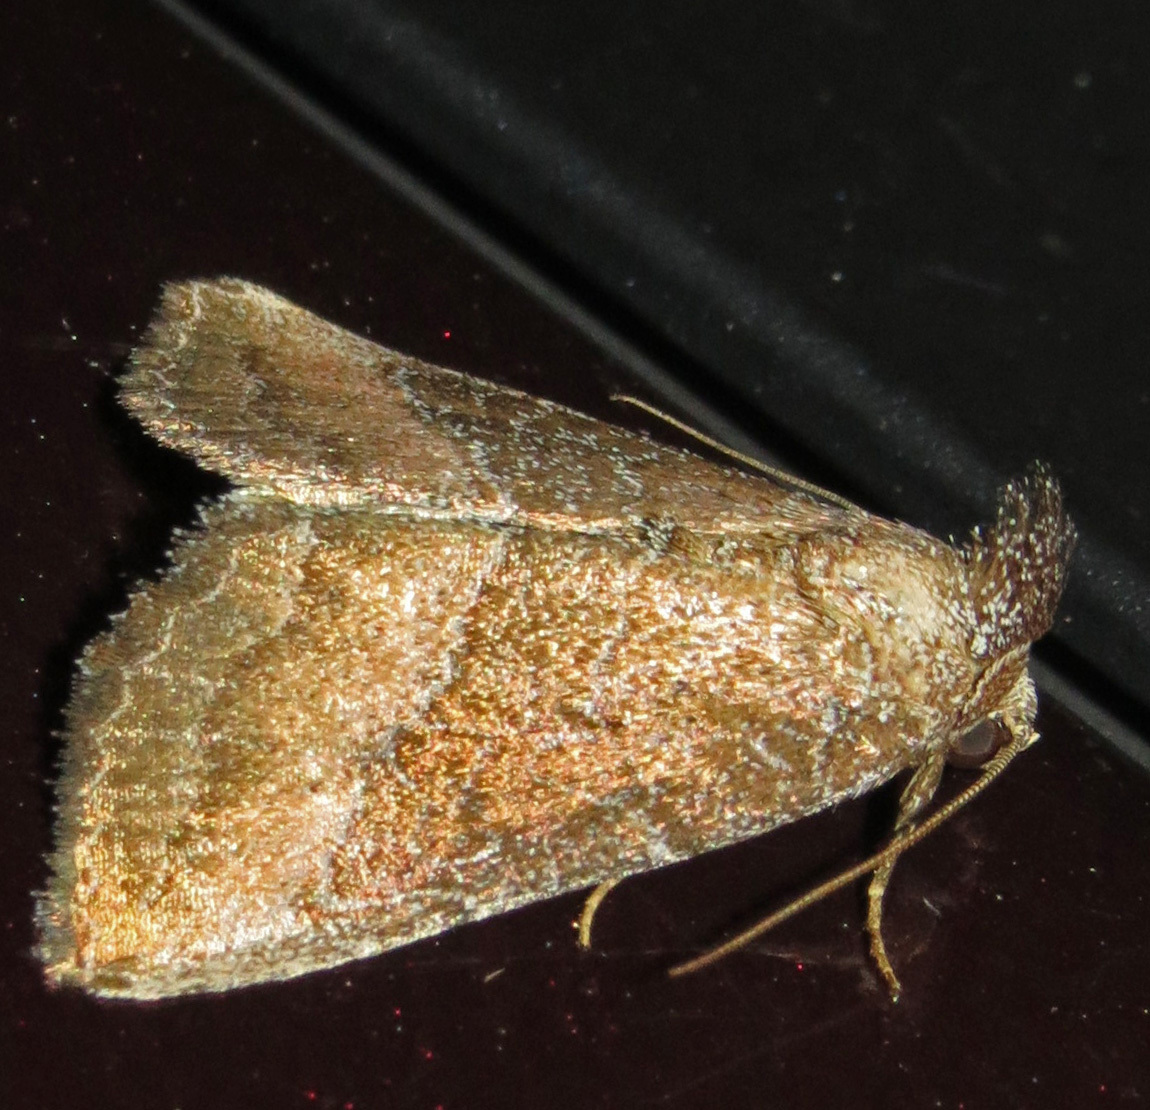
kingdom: Animalia
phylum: Arthropoda
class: Insecta
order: Lepidoptera
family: Noctuidae
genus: Ogdoconta
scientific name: Ogdoconta cinereola
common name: Common pinkband
